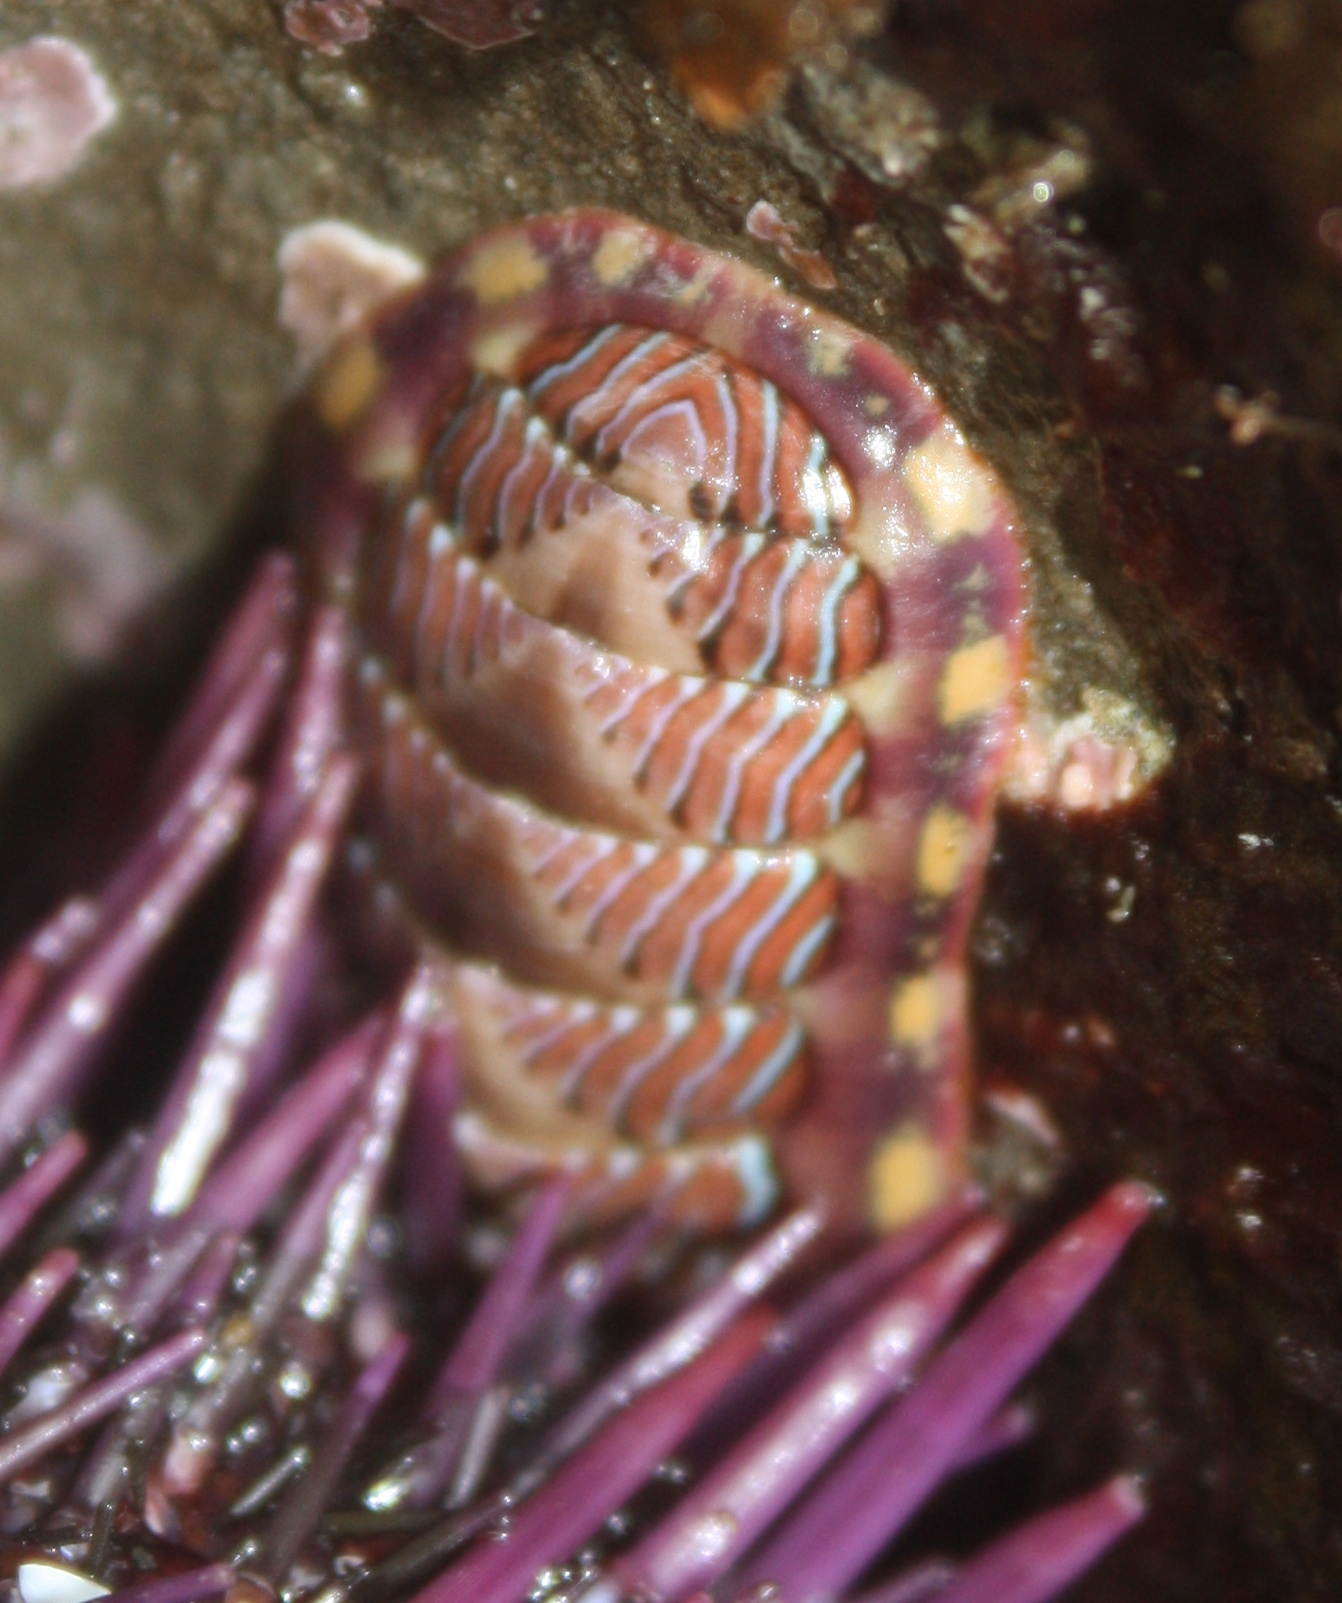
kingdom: Animalia
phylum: Mollusca
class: Polyplacophora
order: Chitonida
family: Tonicellidae
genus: Tonicella
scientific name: Tonicella lineata
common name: Lined chiton
